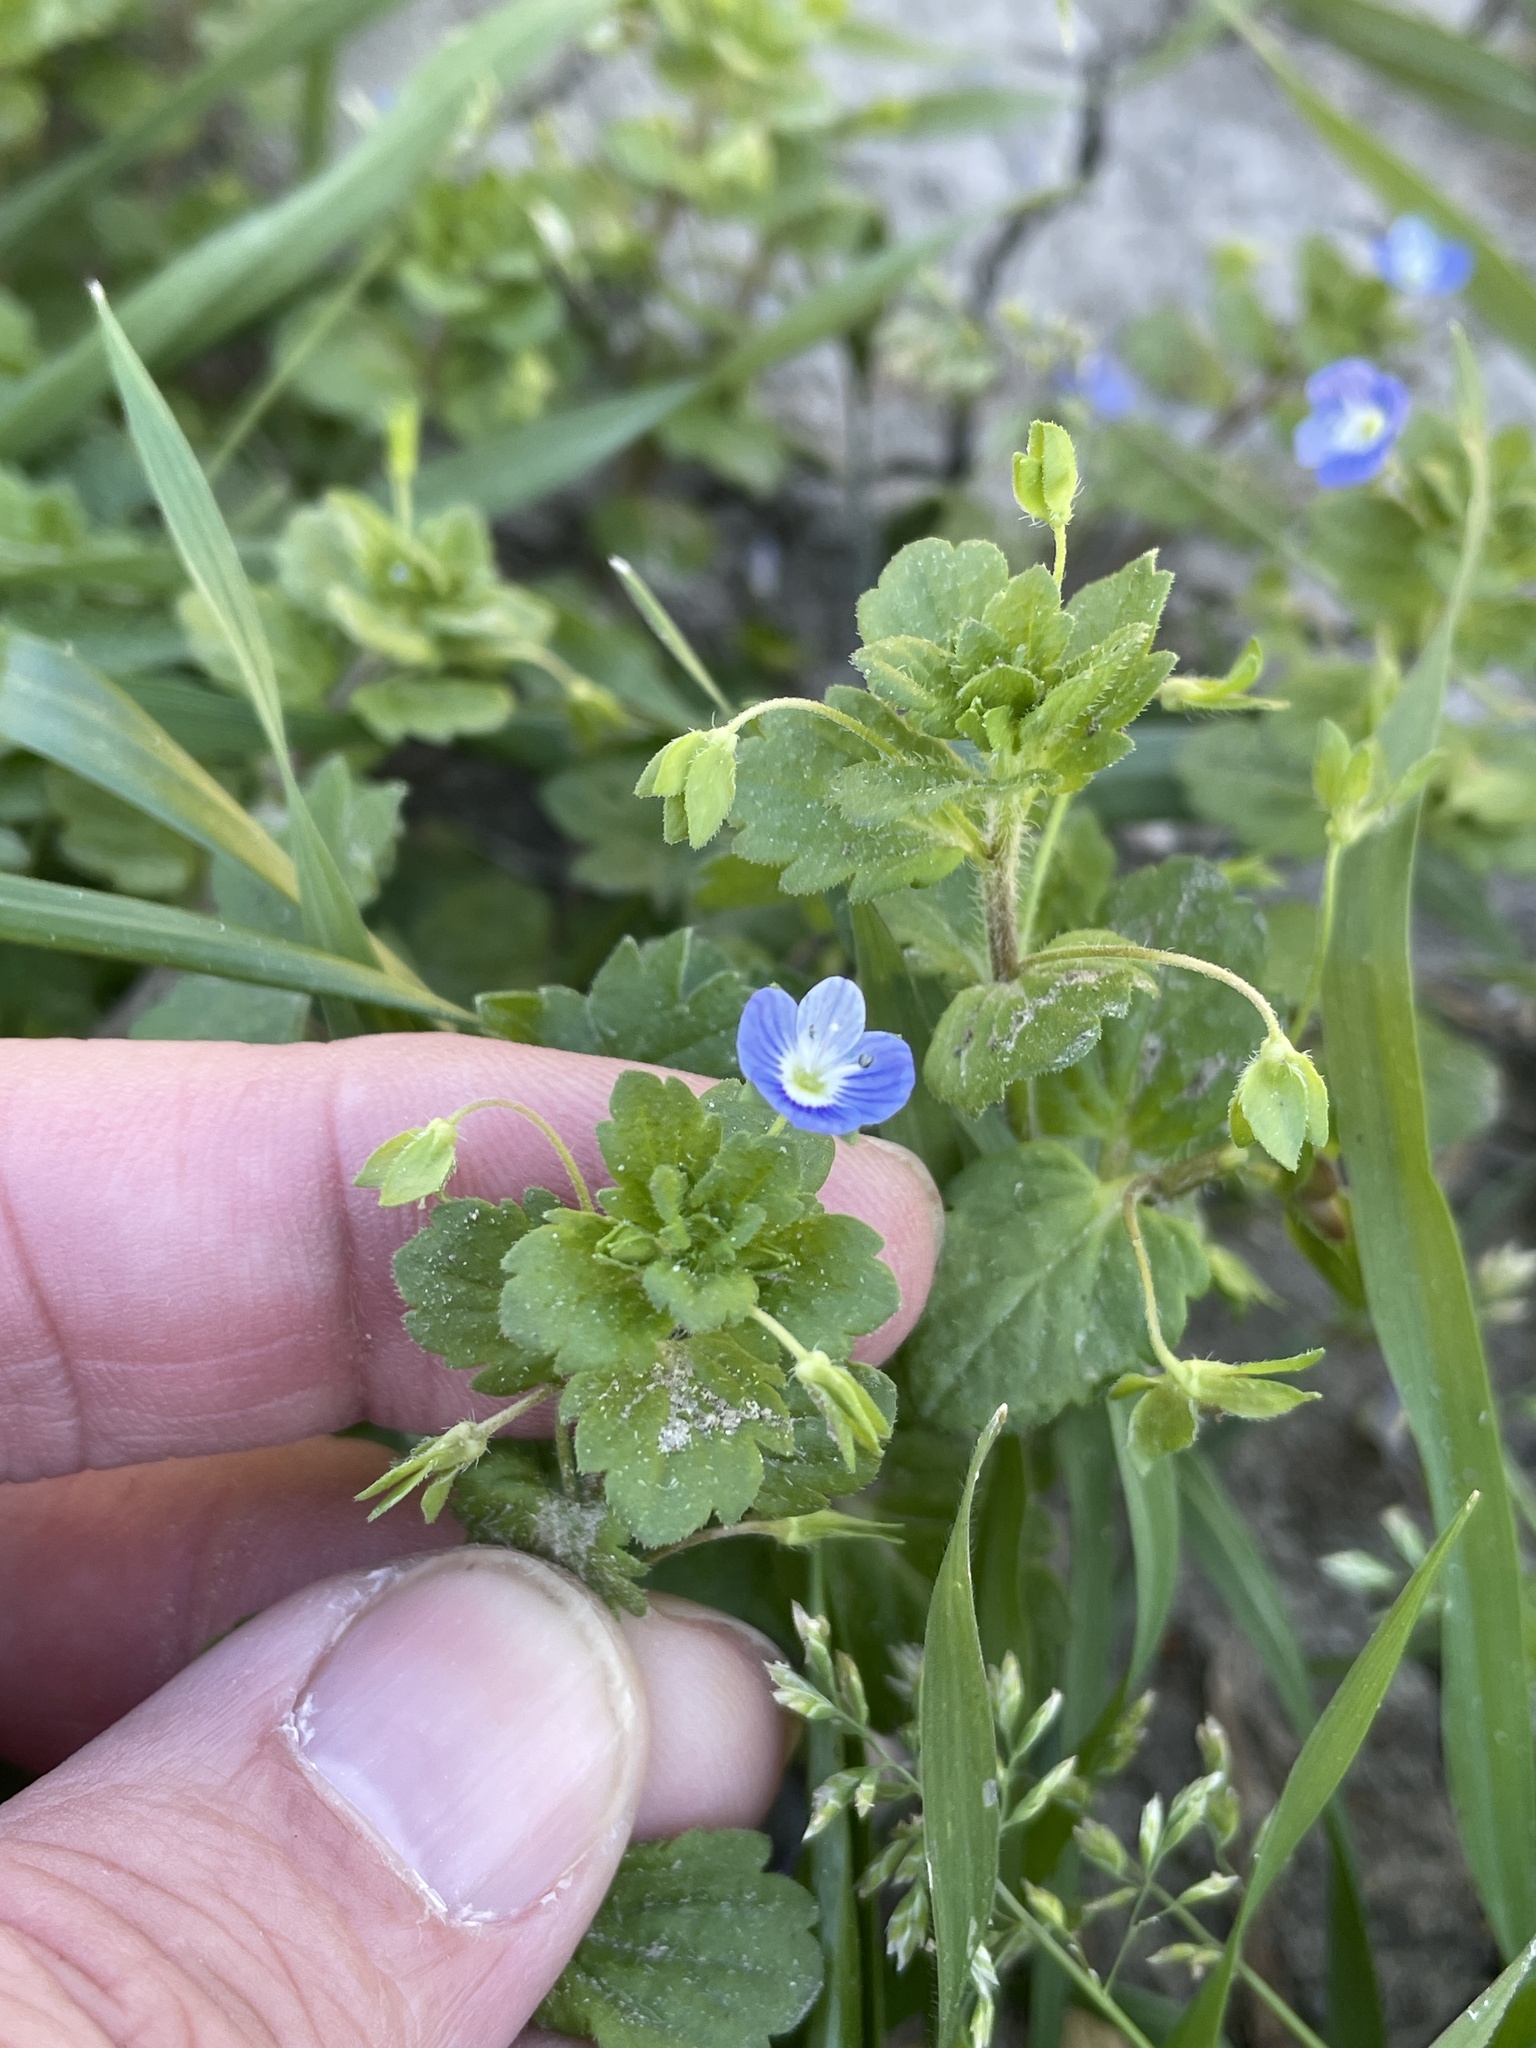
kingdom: Plantae
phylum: Tracheophyta
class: Magnoliopsida
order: Lamiales
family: Plantaginaceae
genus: Veronica
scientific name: Veronica persica
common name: Common field-speedwell
